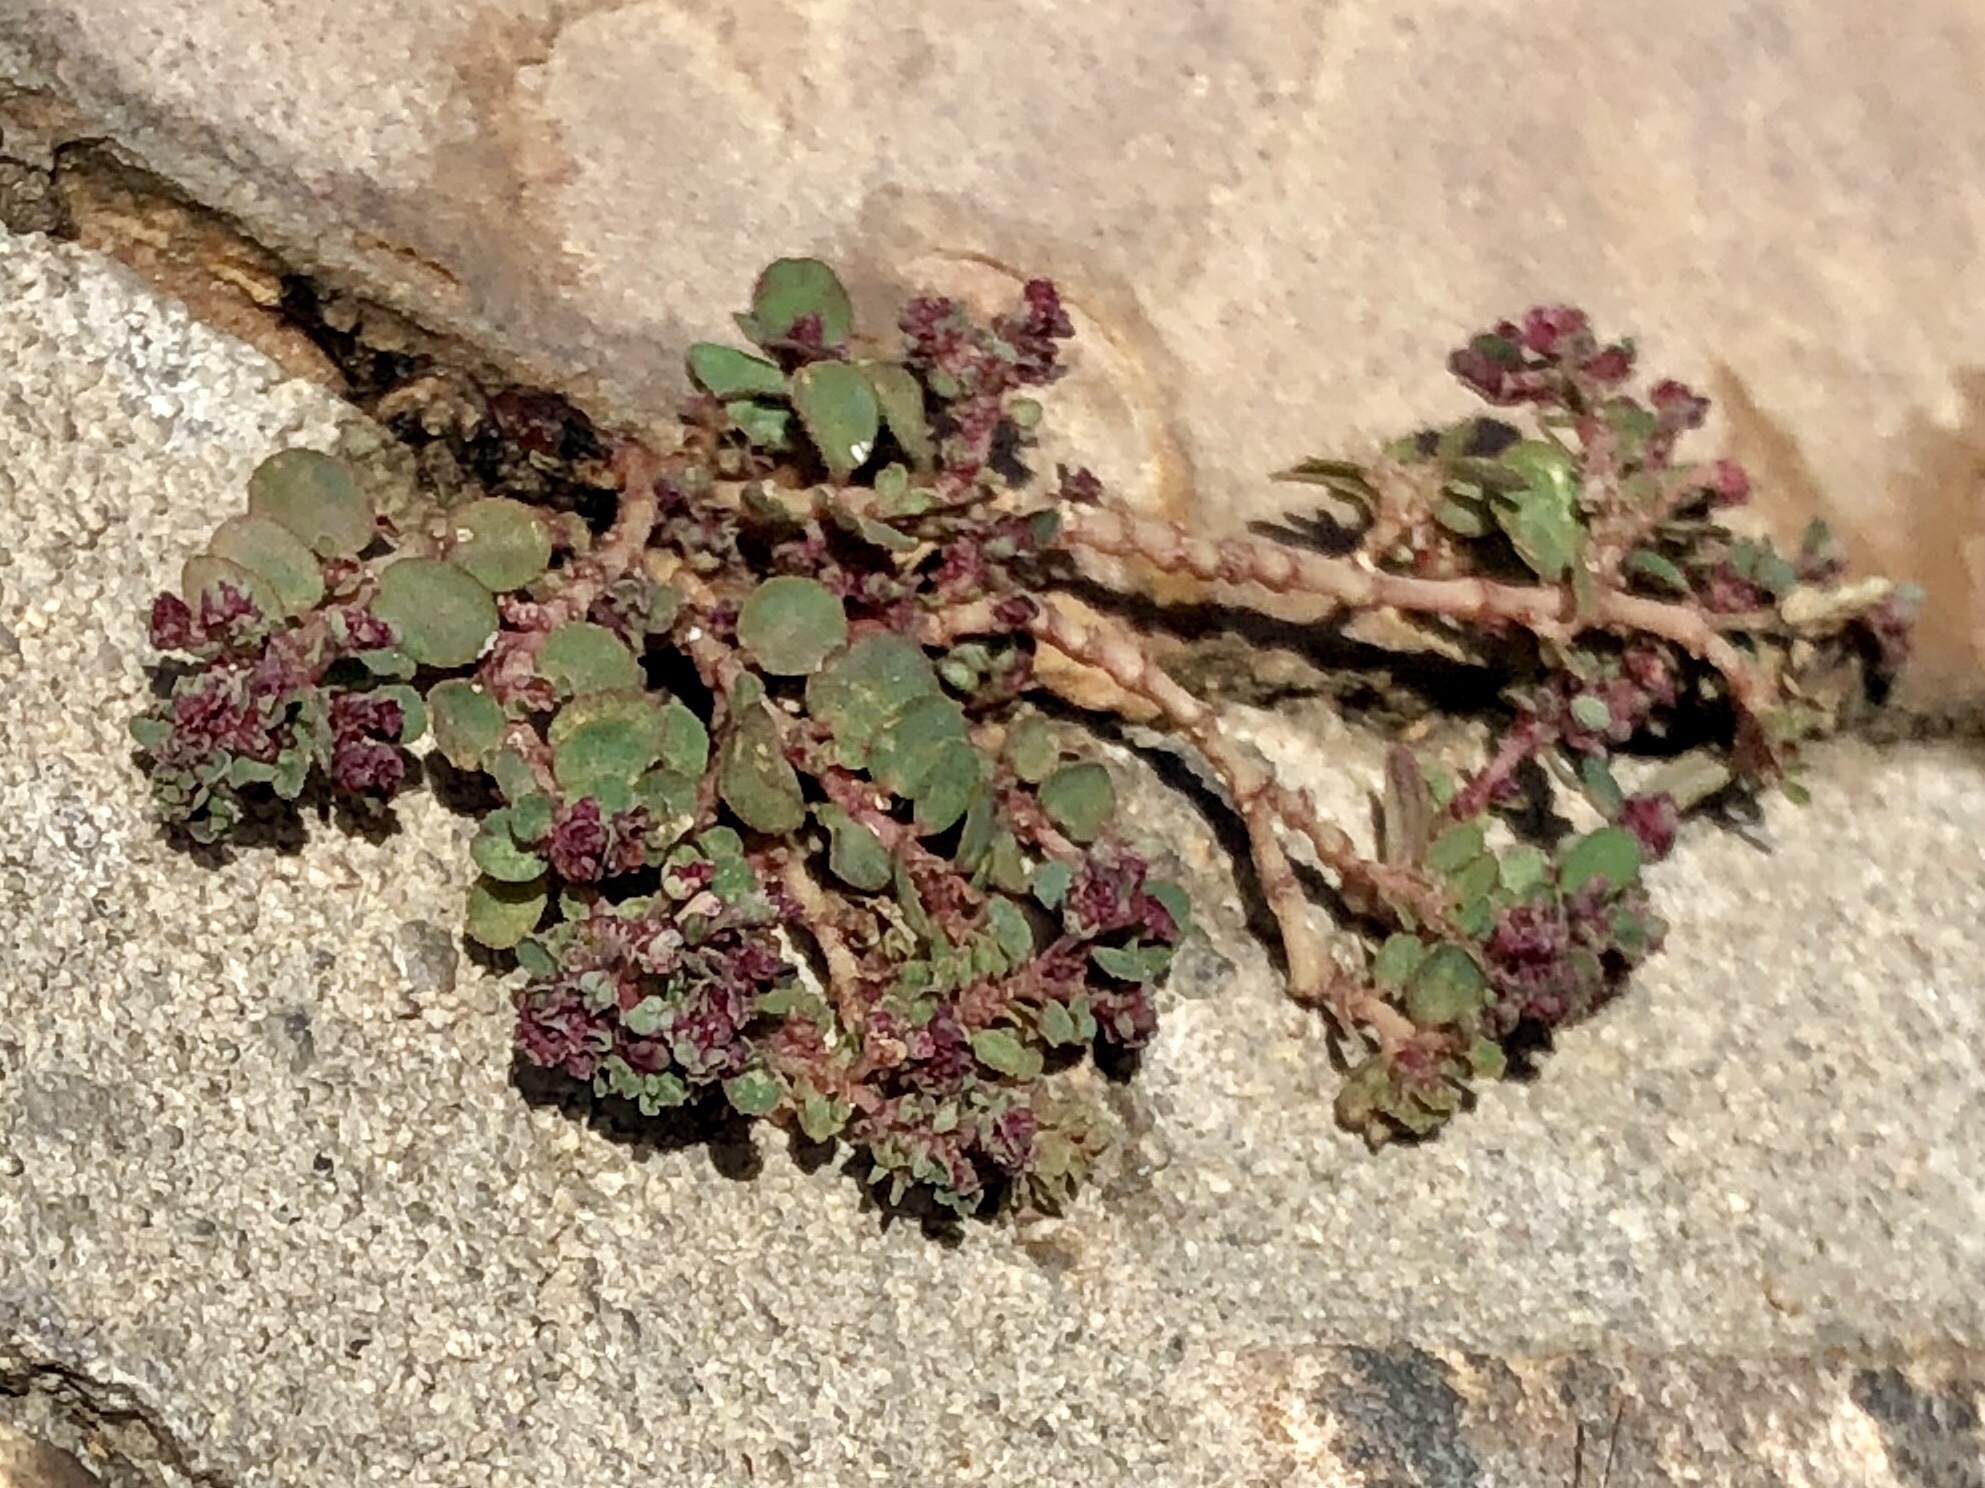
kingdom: Plantae
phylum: Tracheophyta
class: Magnoliopsida
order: Malpighiales
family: Euphorbiaceae
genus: Euphorbia
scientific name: Euphorbia prostrata
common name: Prostrate sandmat
